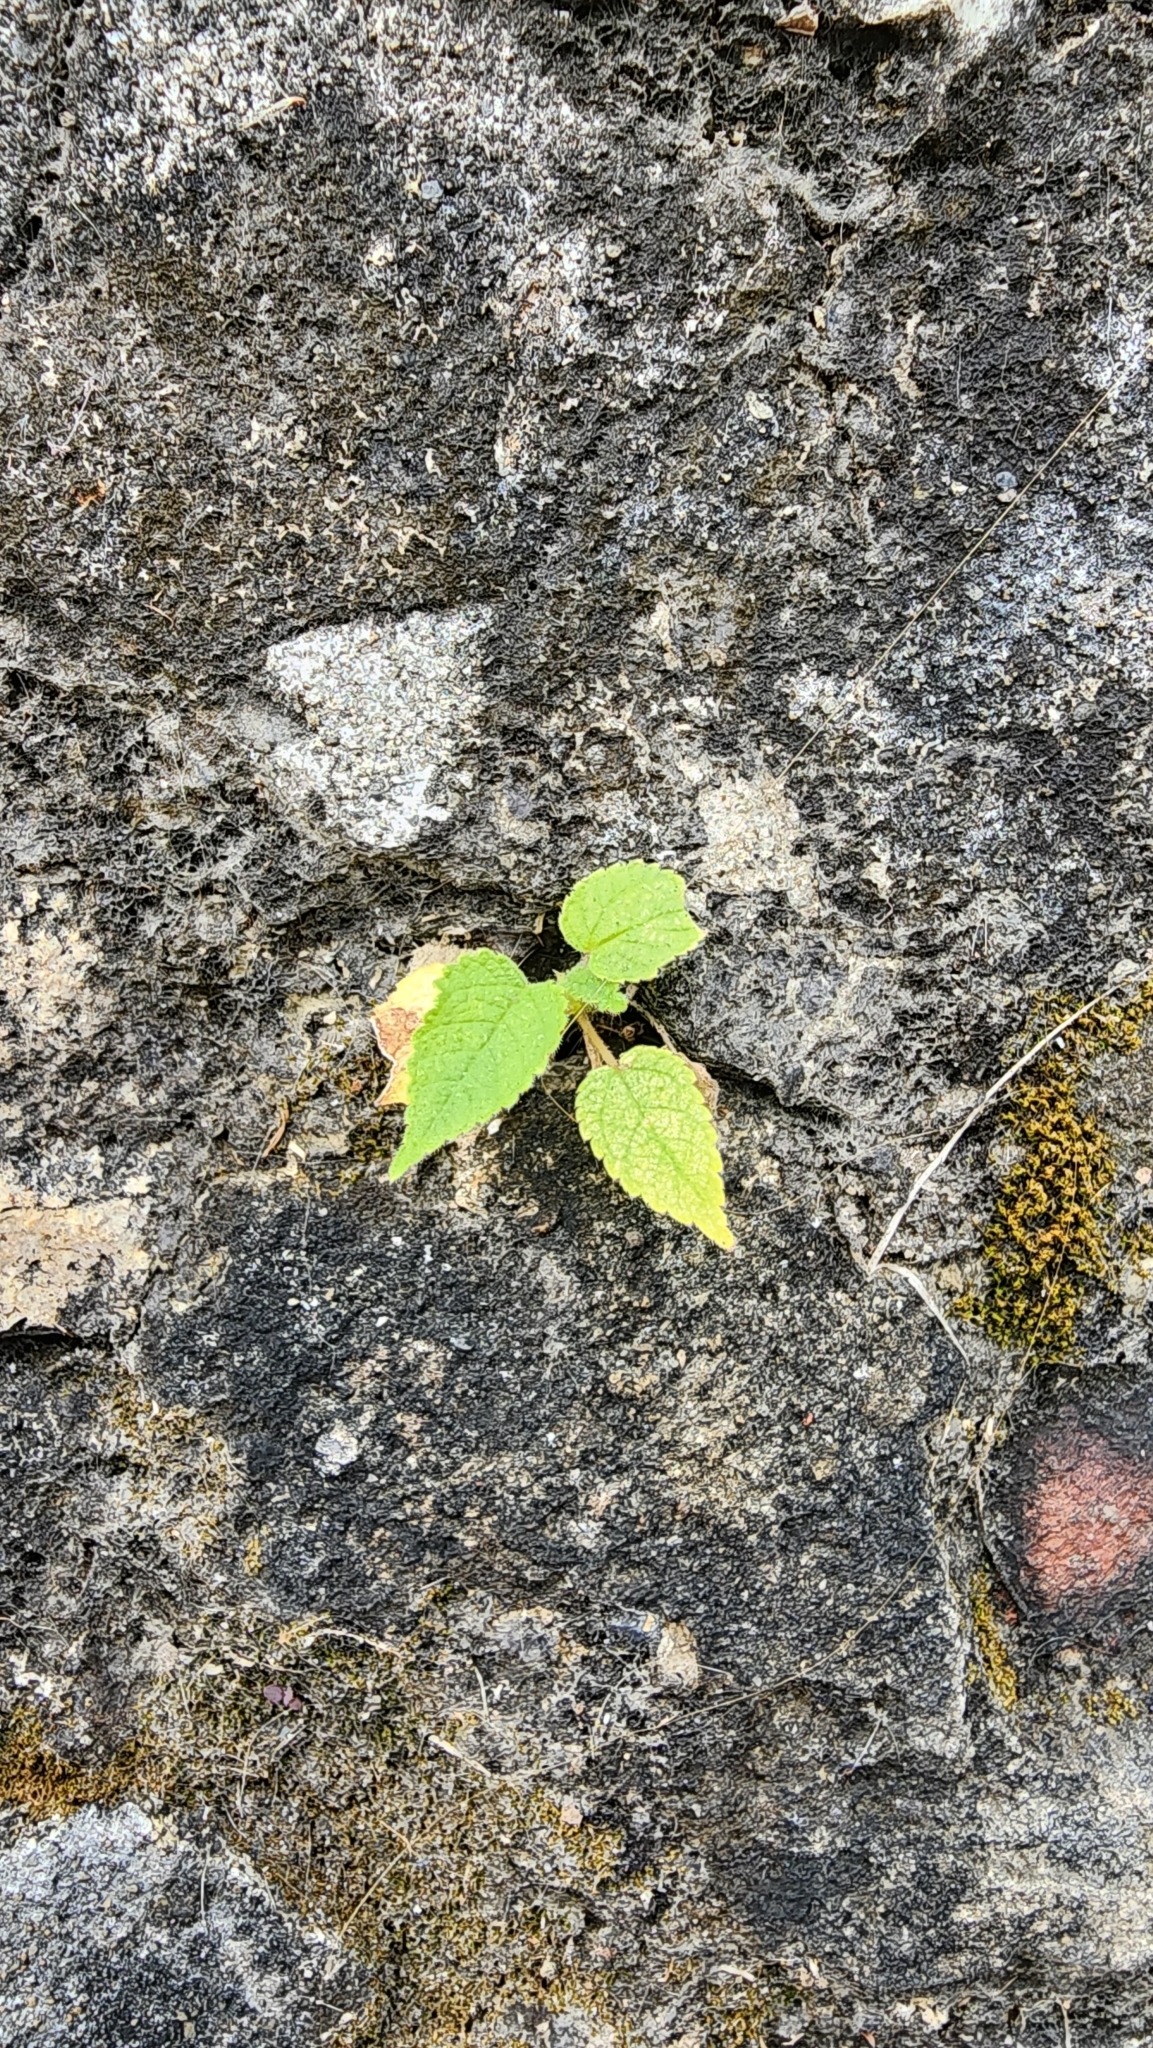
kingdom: Plantae
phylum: Tracheophyta
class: Magnoliopsida
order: Rosales
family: Moraceae
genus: Broussonetia
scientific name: Broussonetia papyrifera
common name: Paper mulberry
